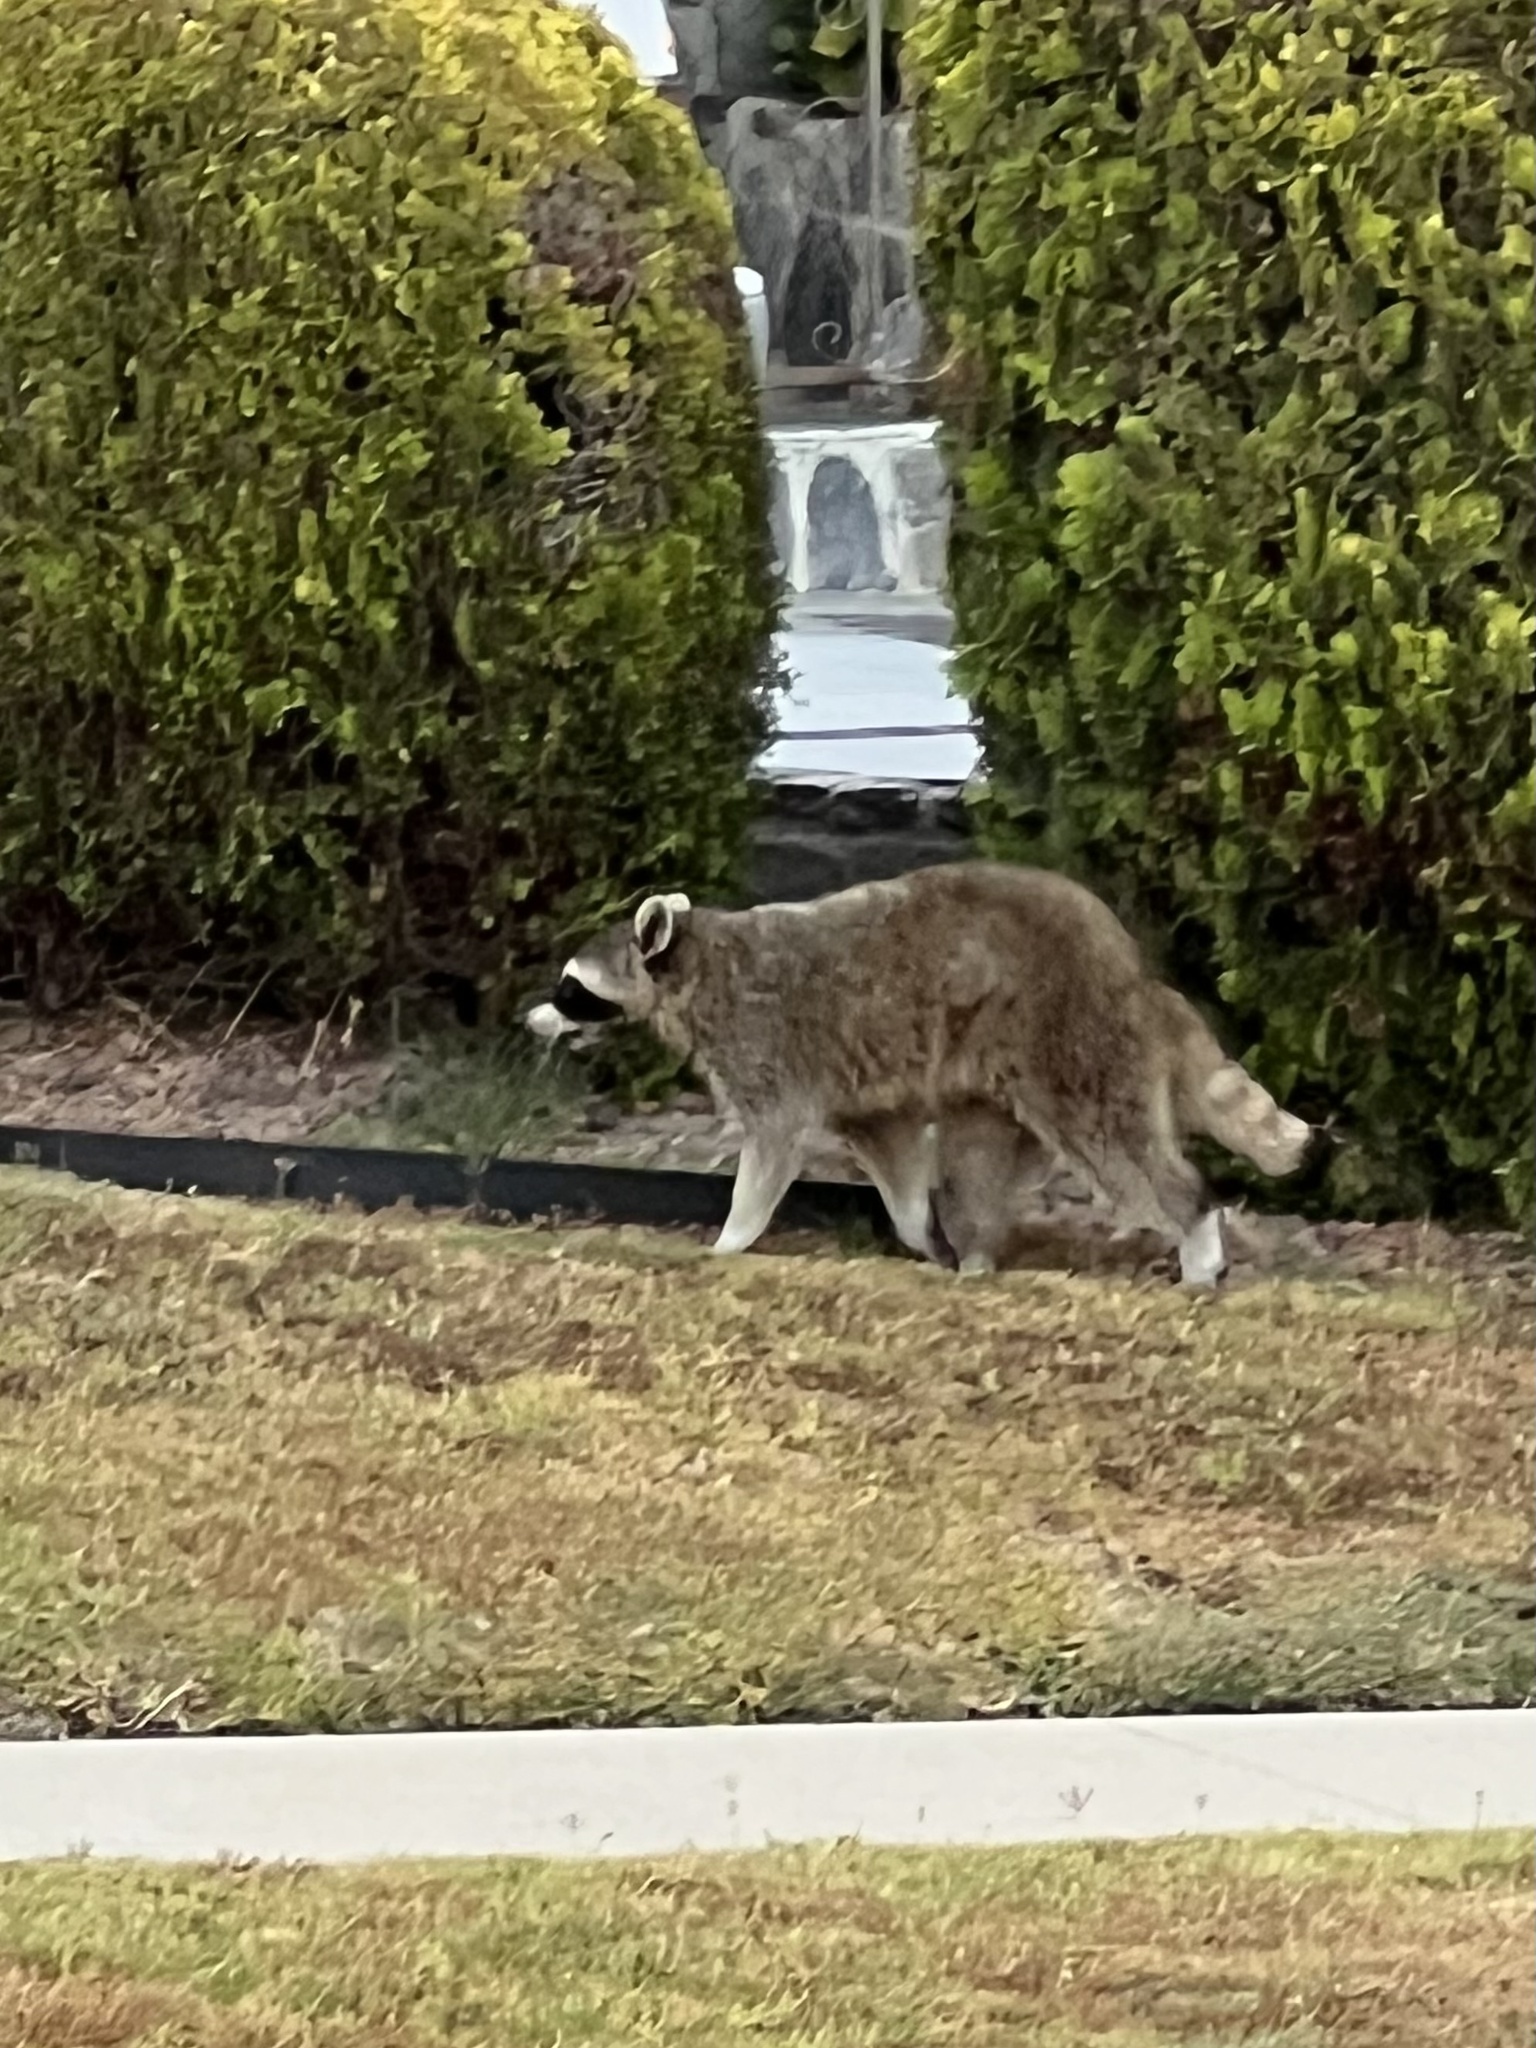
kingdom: Animalia
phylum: Chordata
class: Mammalia
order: Carnivora
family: Procyonidae
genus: Procyon
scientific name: Procyon lotor
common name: Raccoon
